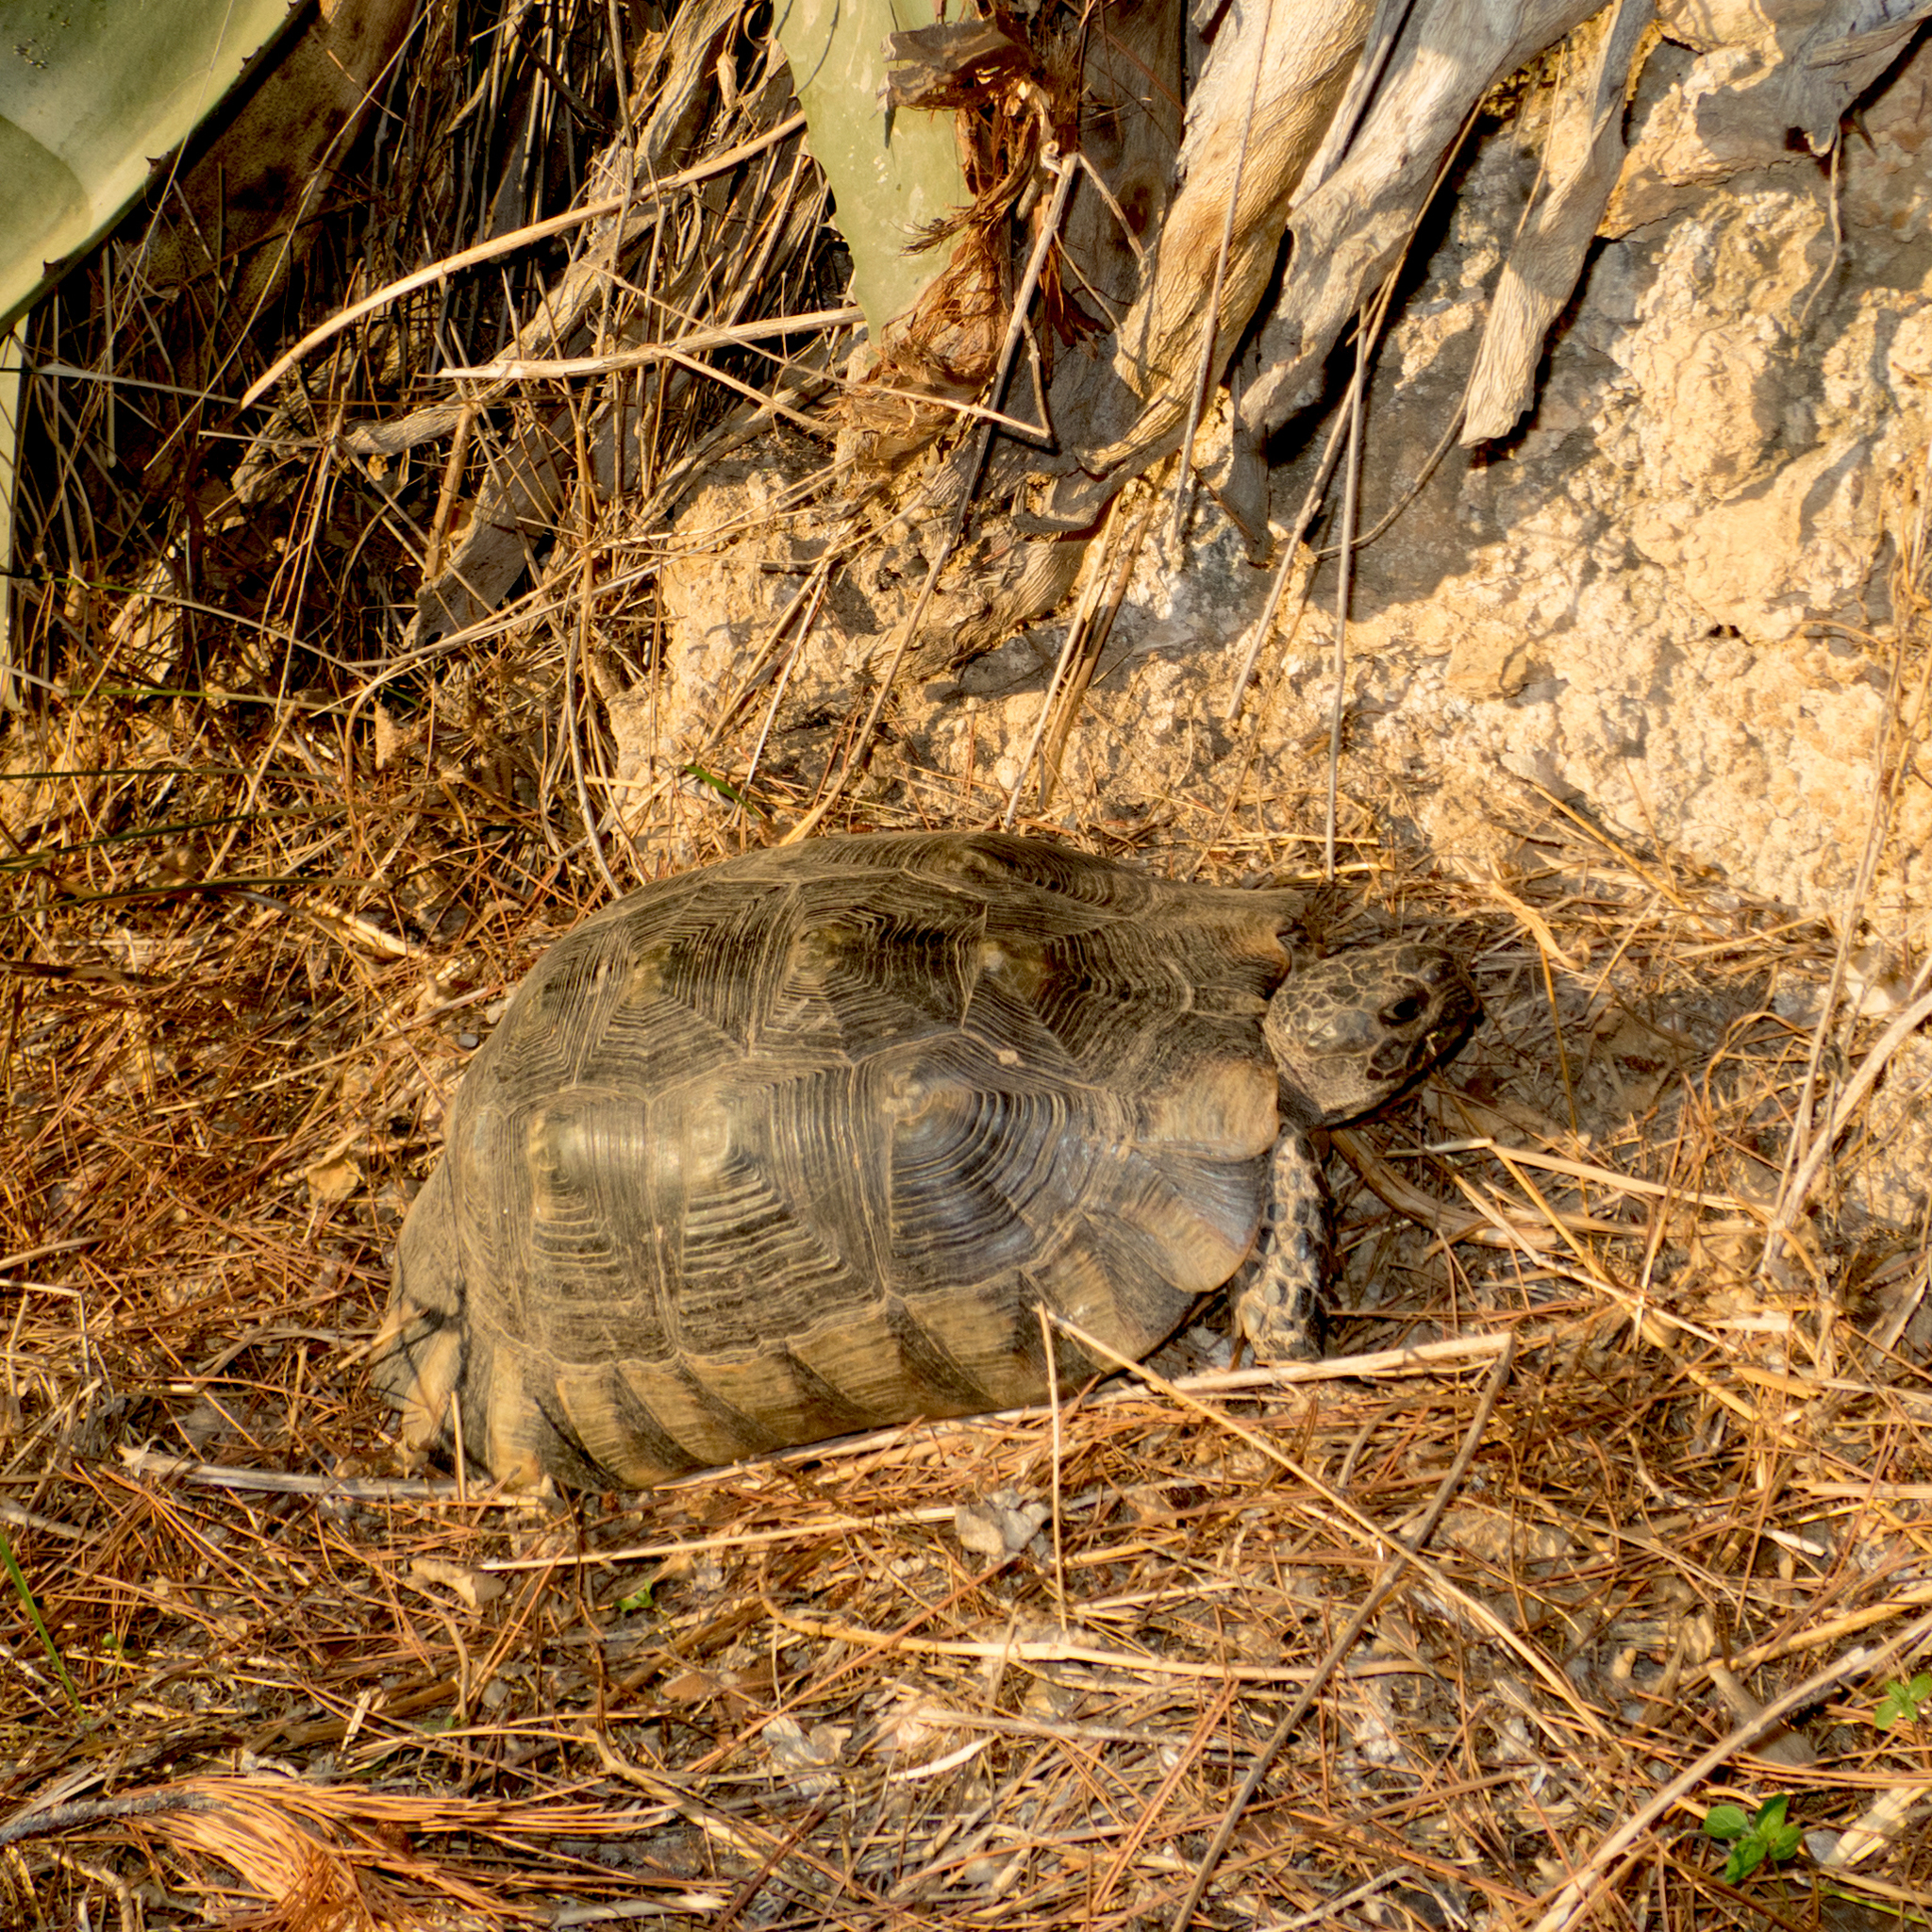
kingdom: Animalia
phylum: Chordata
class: Testudines
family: Testudinidae
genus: Testudo
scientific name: Testudo marginata
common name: Marginated tortoise
